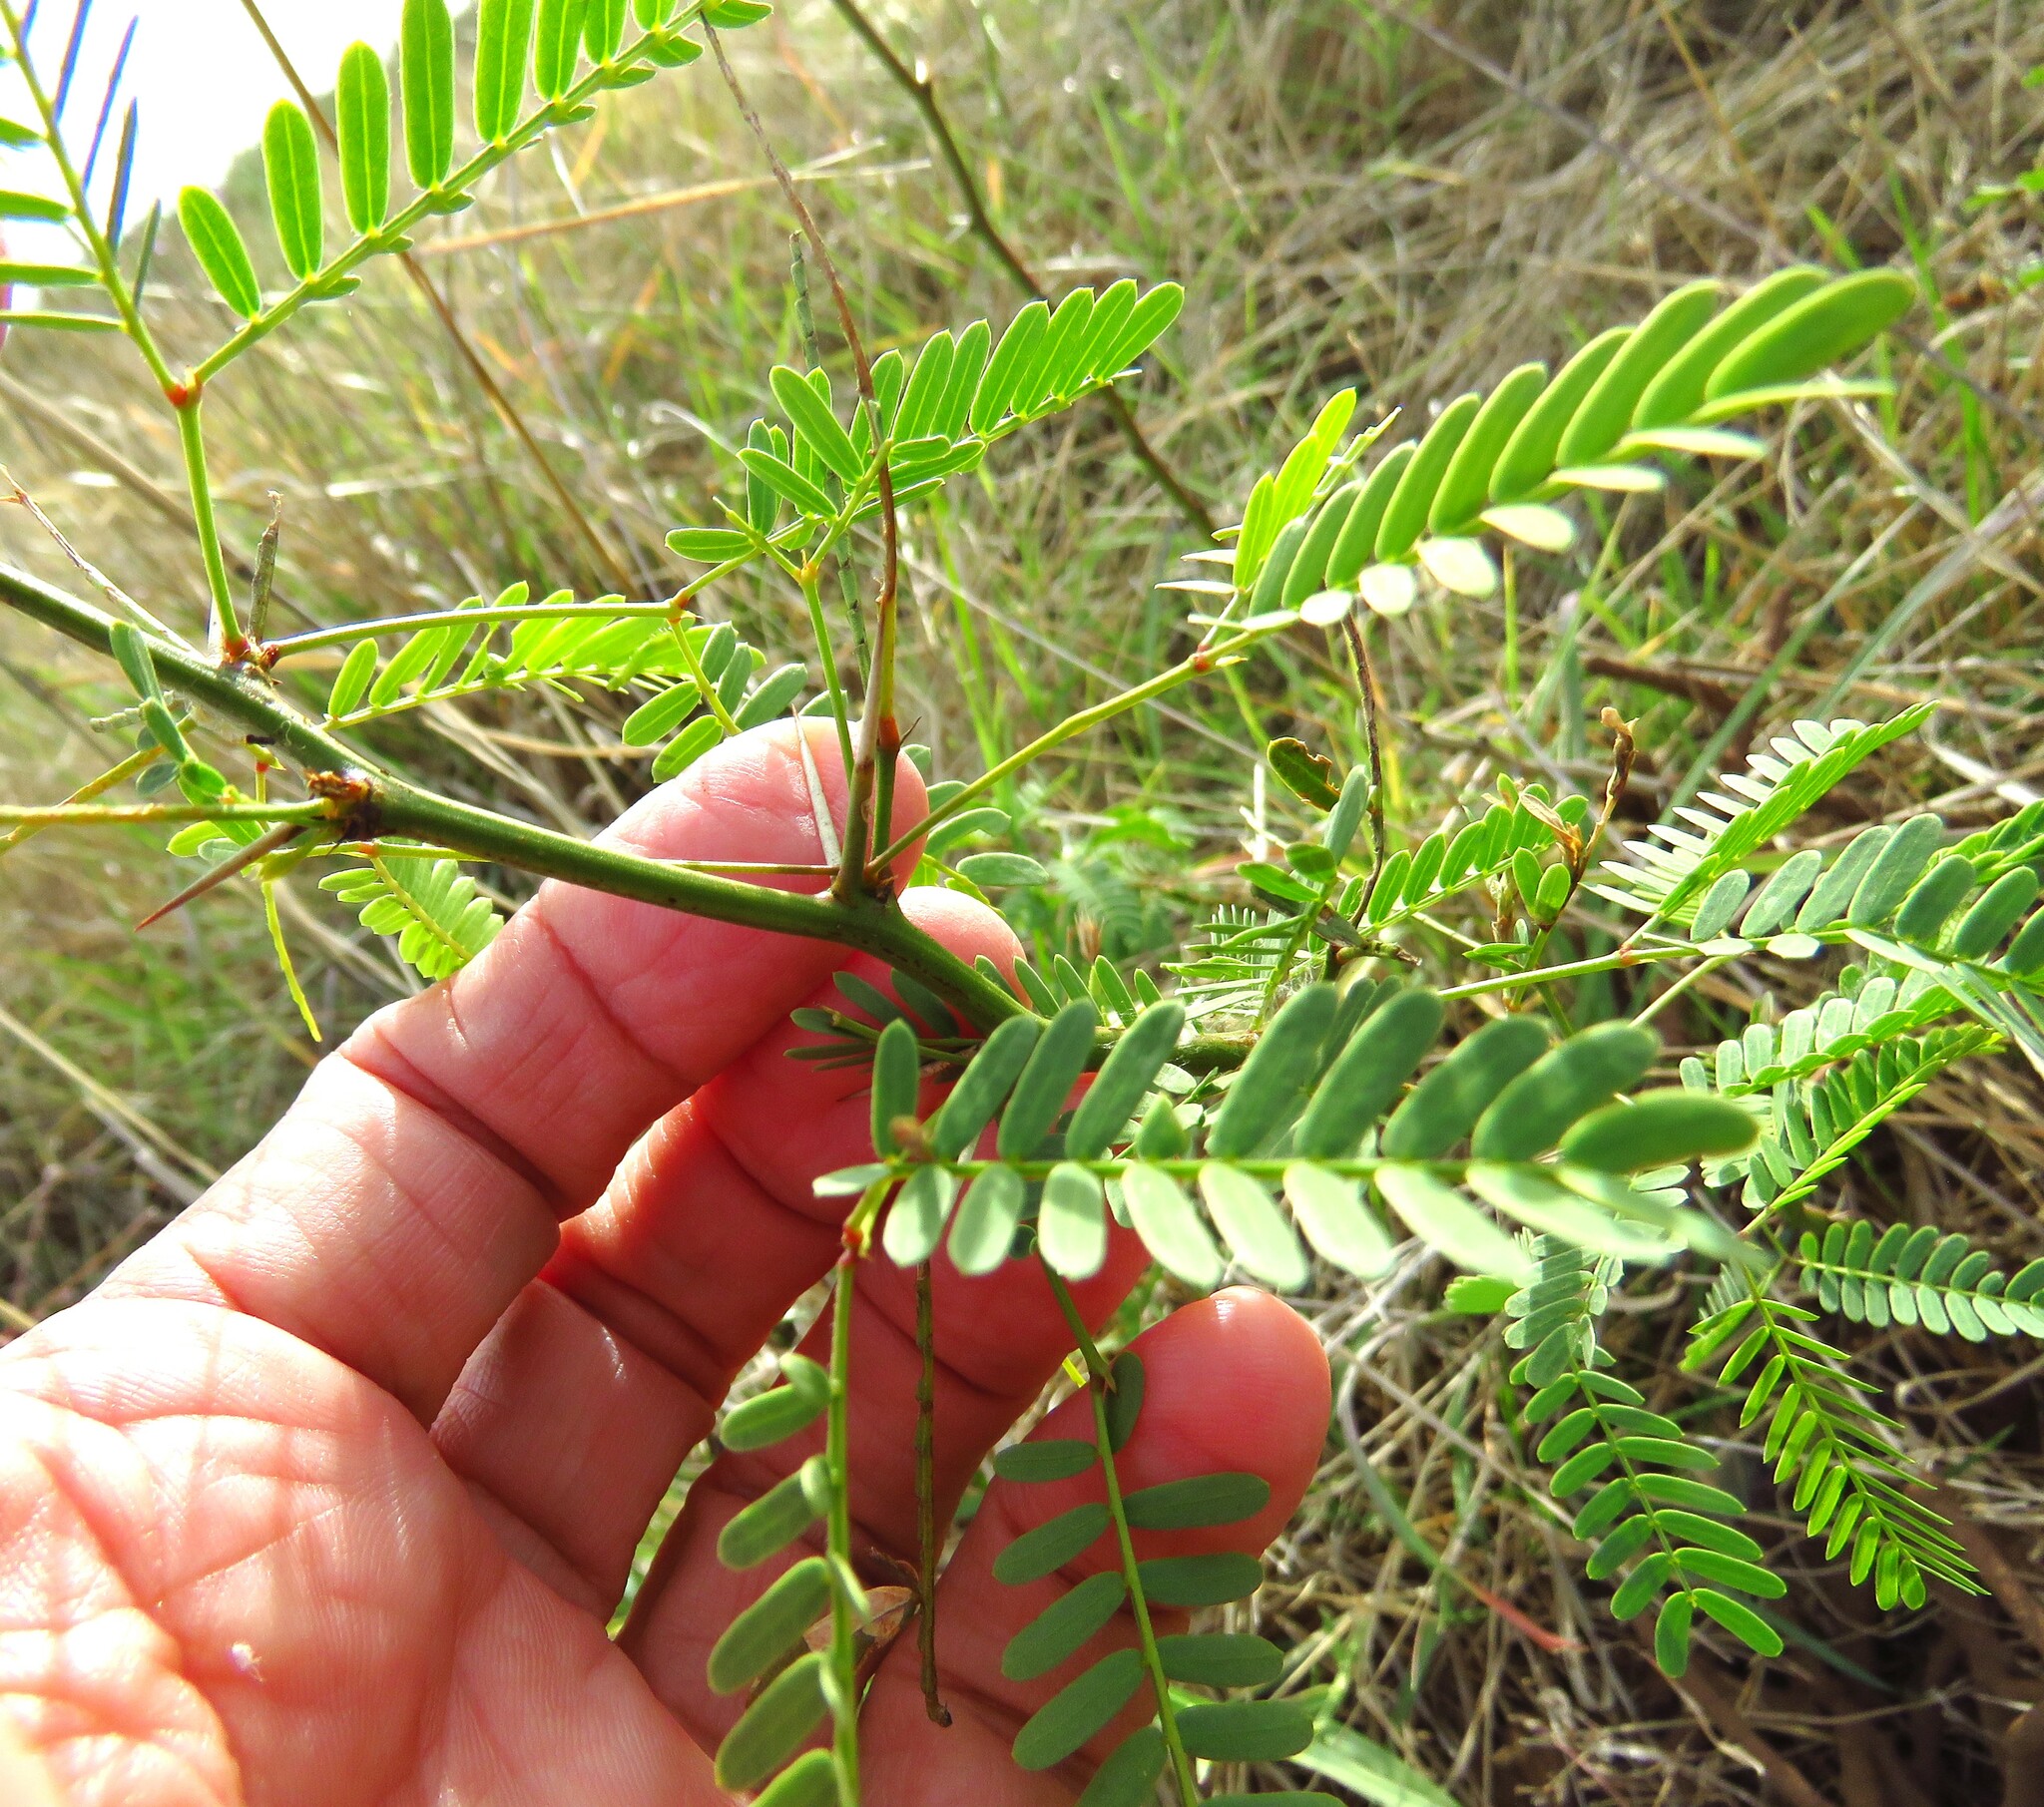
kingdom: Plantae
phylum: Tracheophyta
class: Magnoliopsida
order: Fabales
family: Fabaceae
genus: Prosopis
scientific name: Prosopis glandulosa
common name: Honey mesquite
